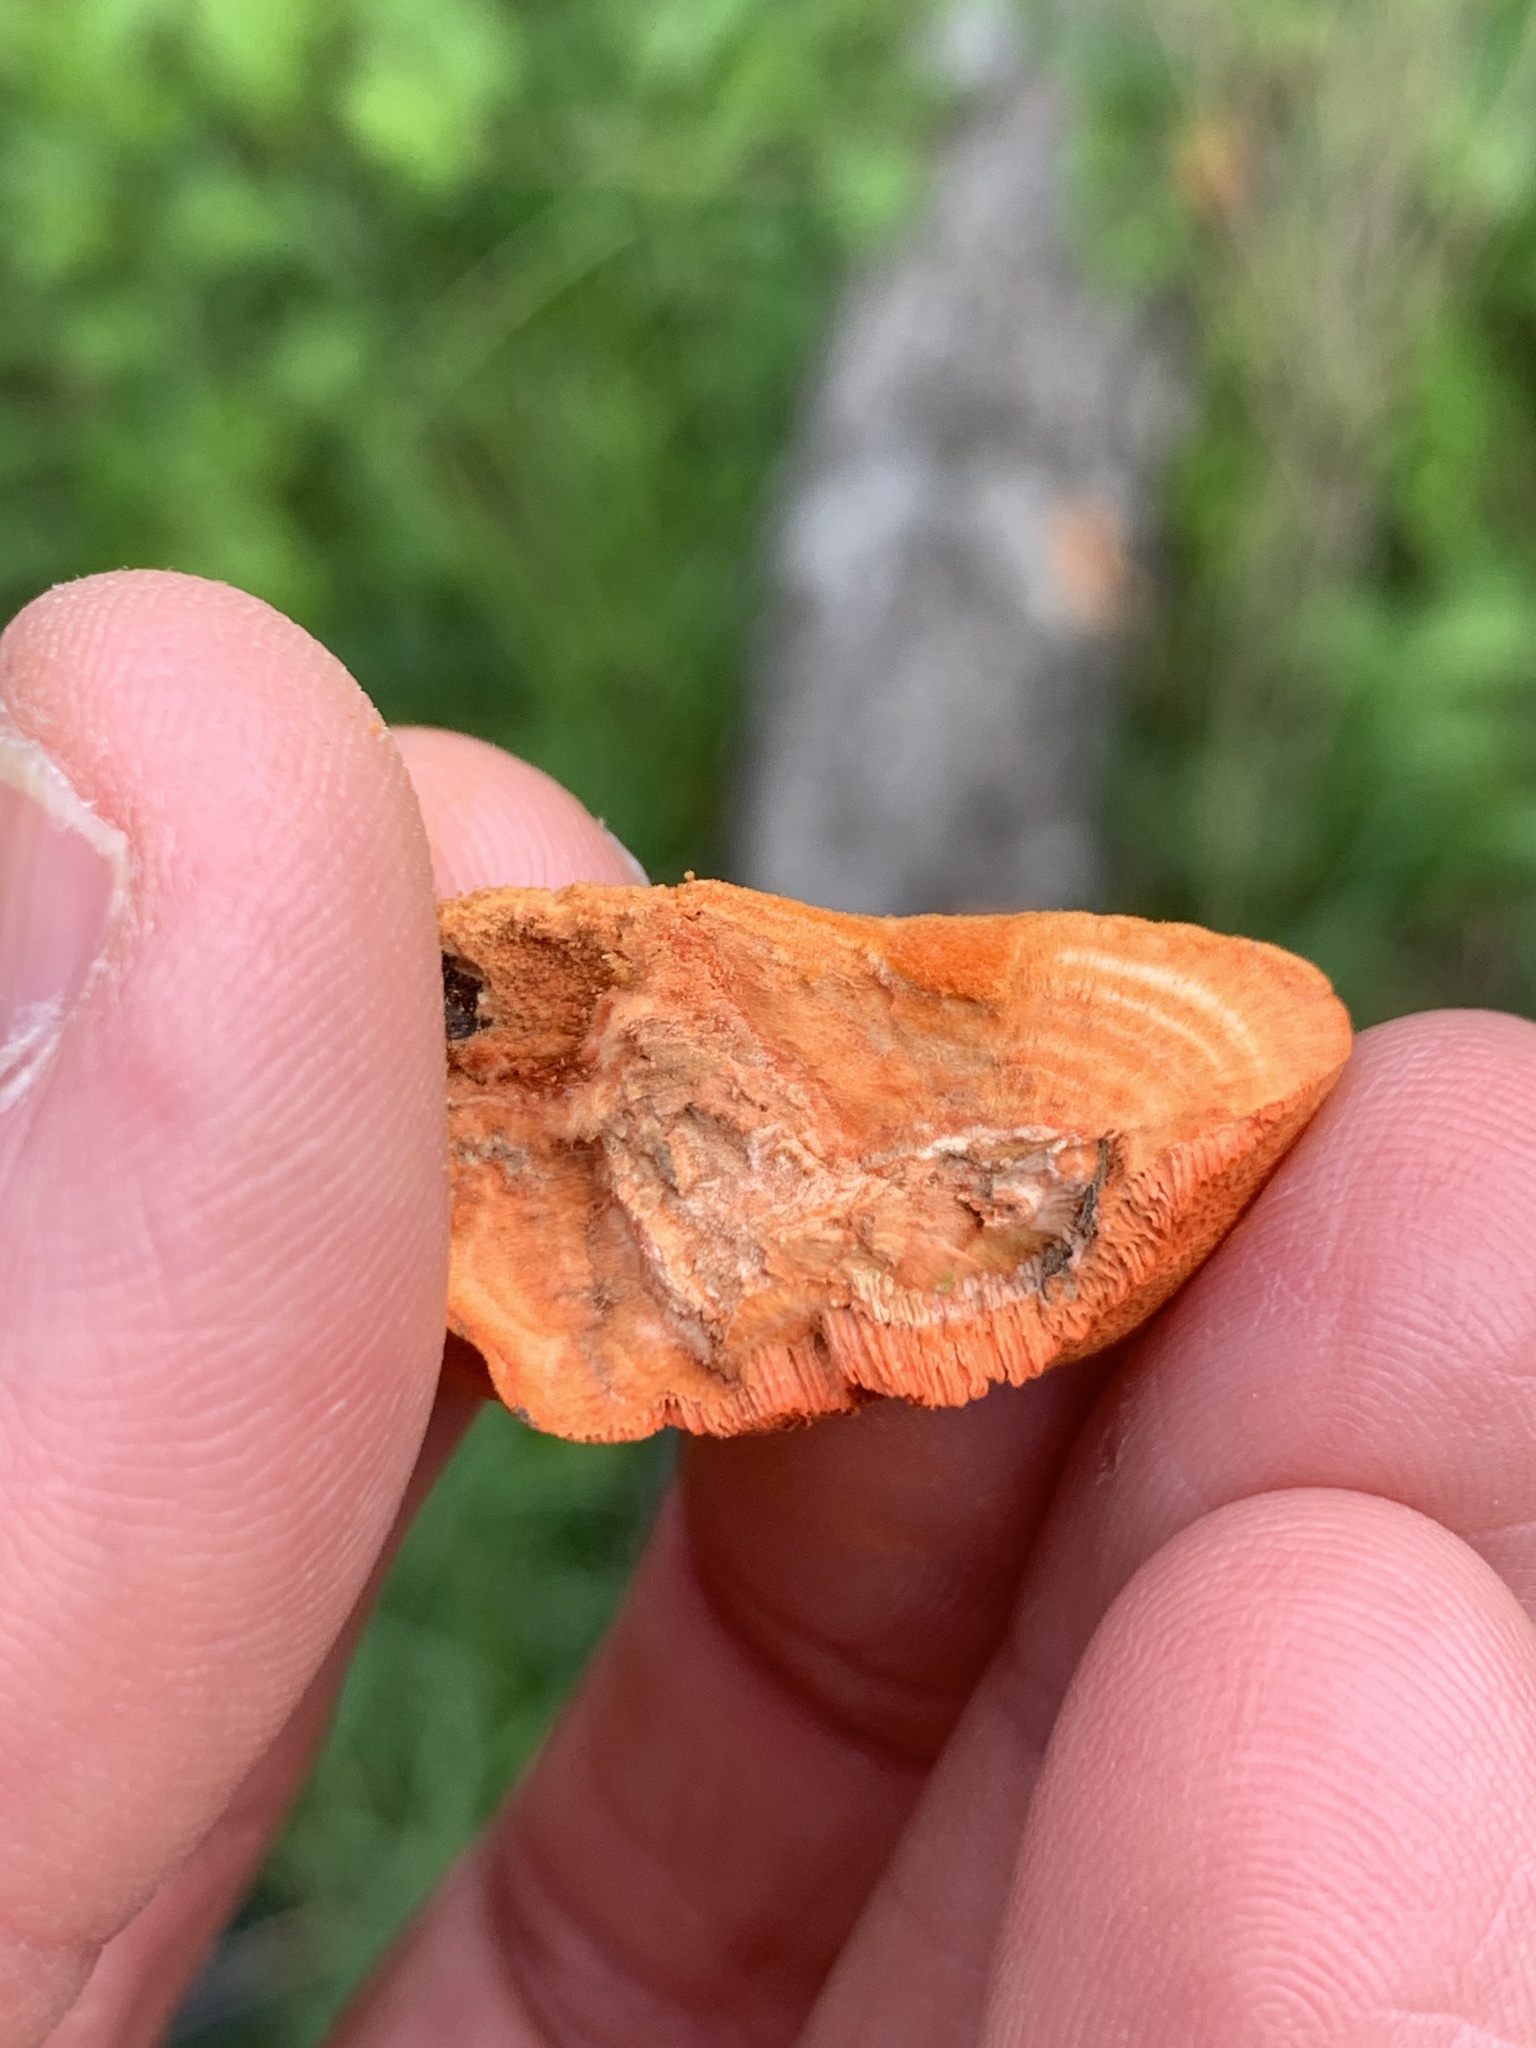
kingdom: Fungi
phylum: Basidiomycota
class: Agaricomycetes
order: Polyporales
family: Polyporaceae
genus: Trametes
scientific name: Trametes cinnabarina
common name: Northern cinnabar polypore
